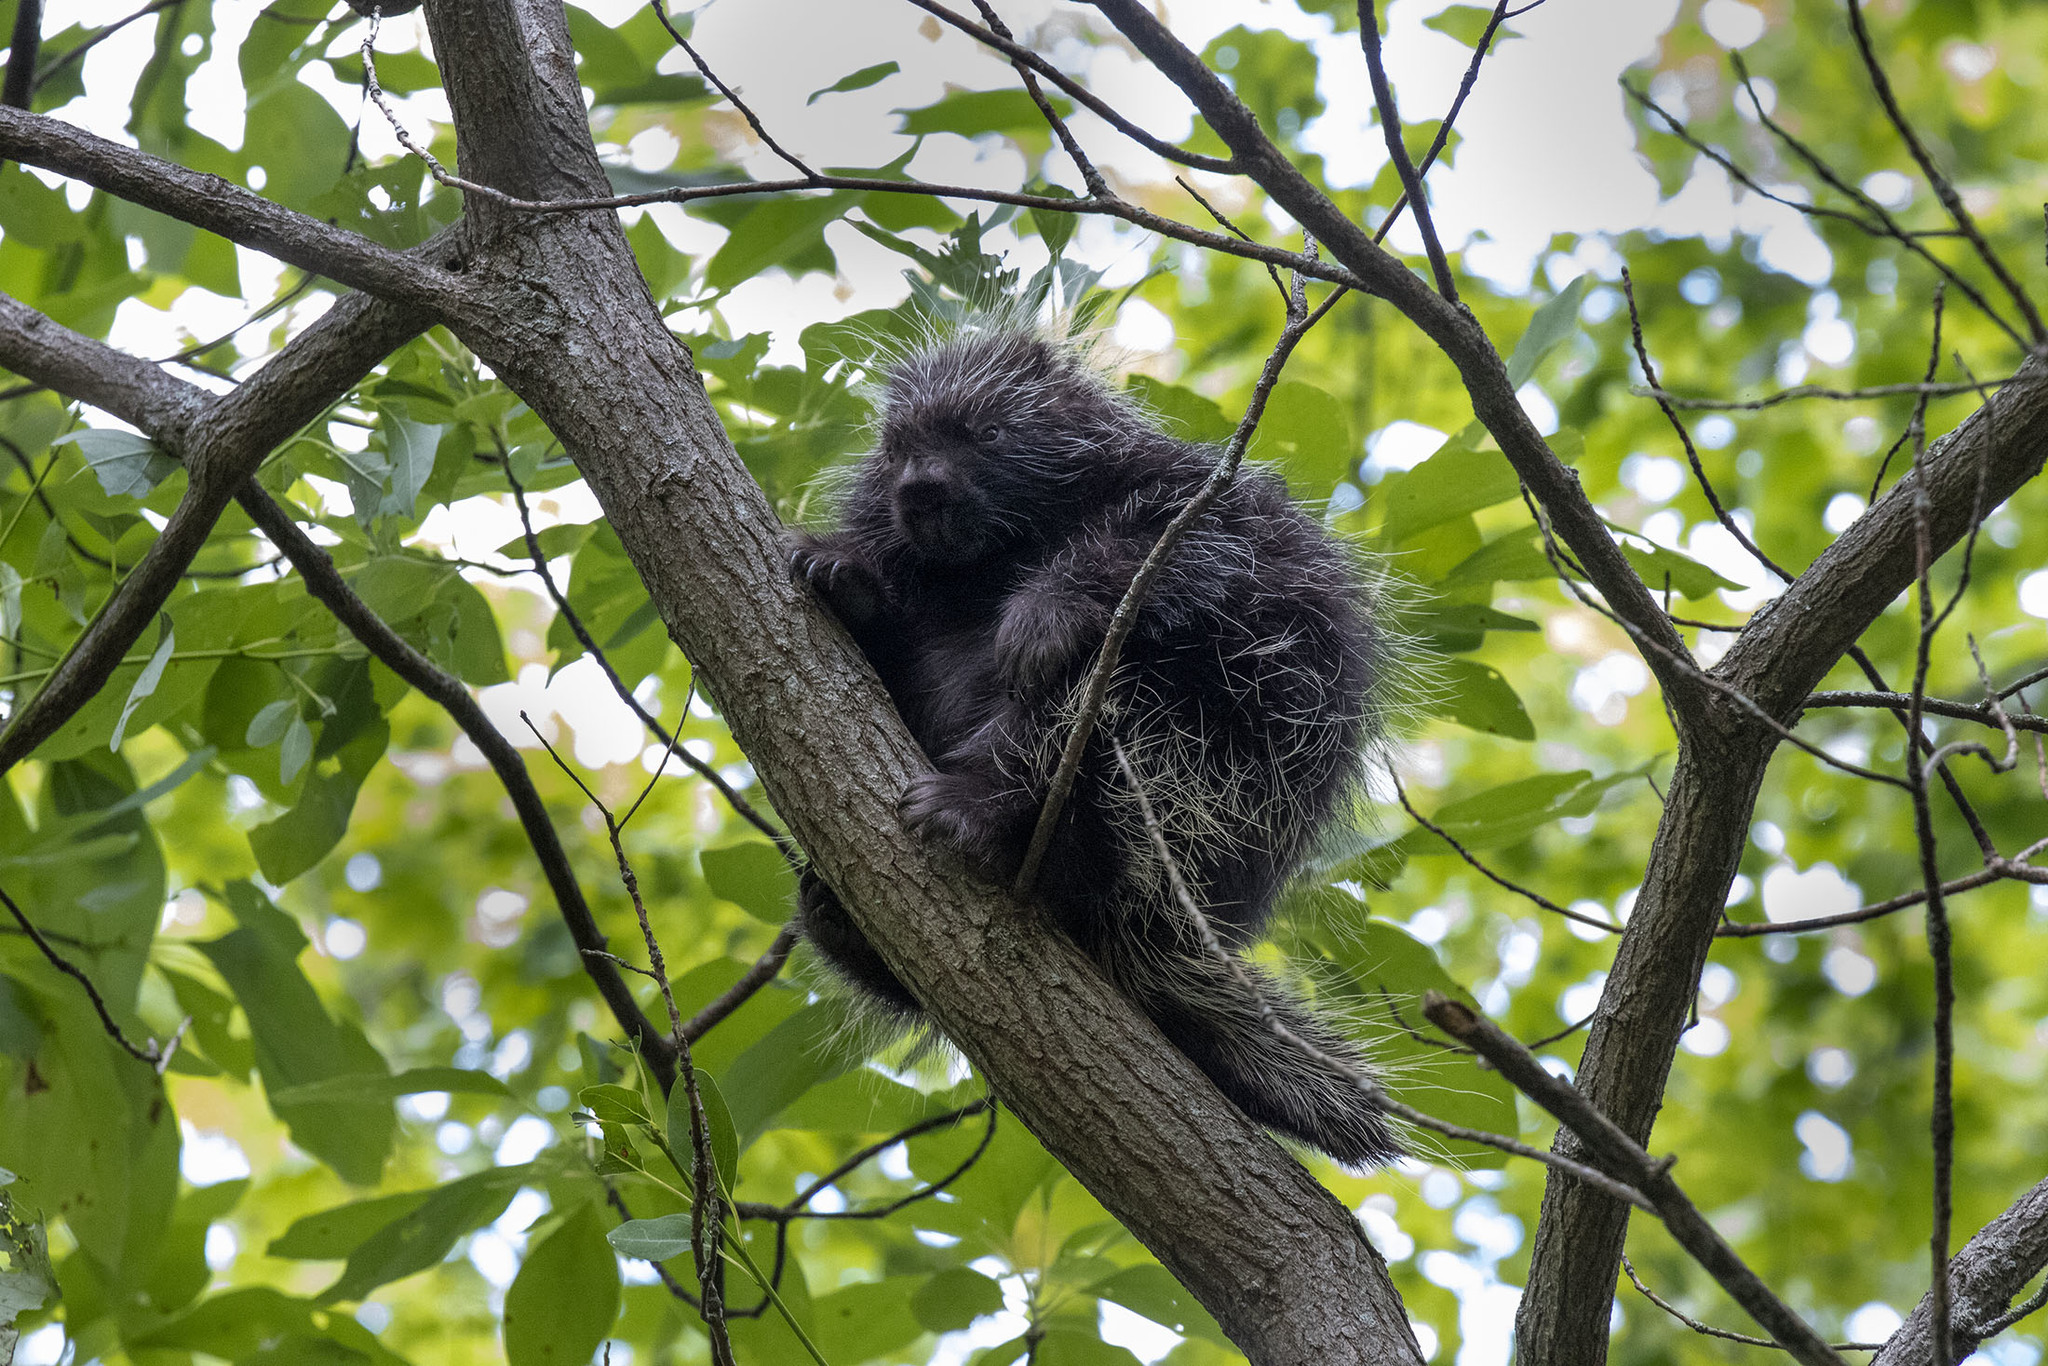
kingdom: Animalia
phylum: Chordata
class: Mammalia
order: Rodentia
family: Erethizontidae
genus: Erethizon
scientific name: Erethizon dorsatus
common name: North american porcupine
